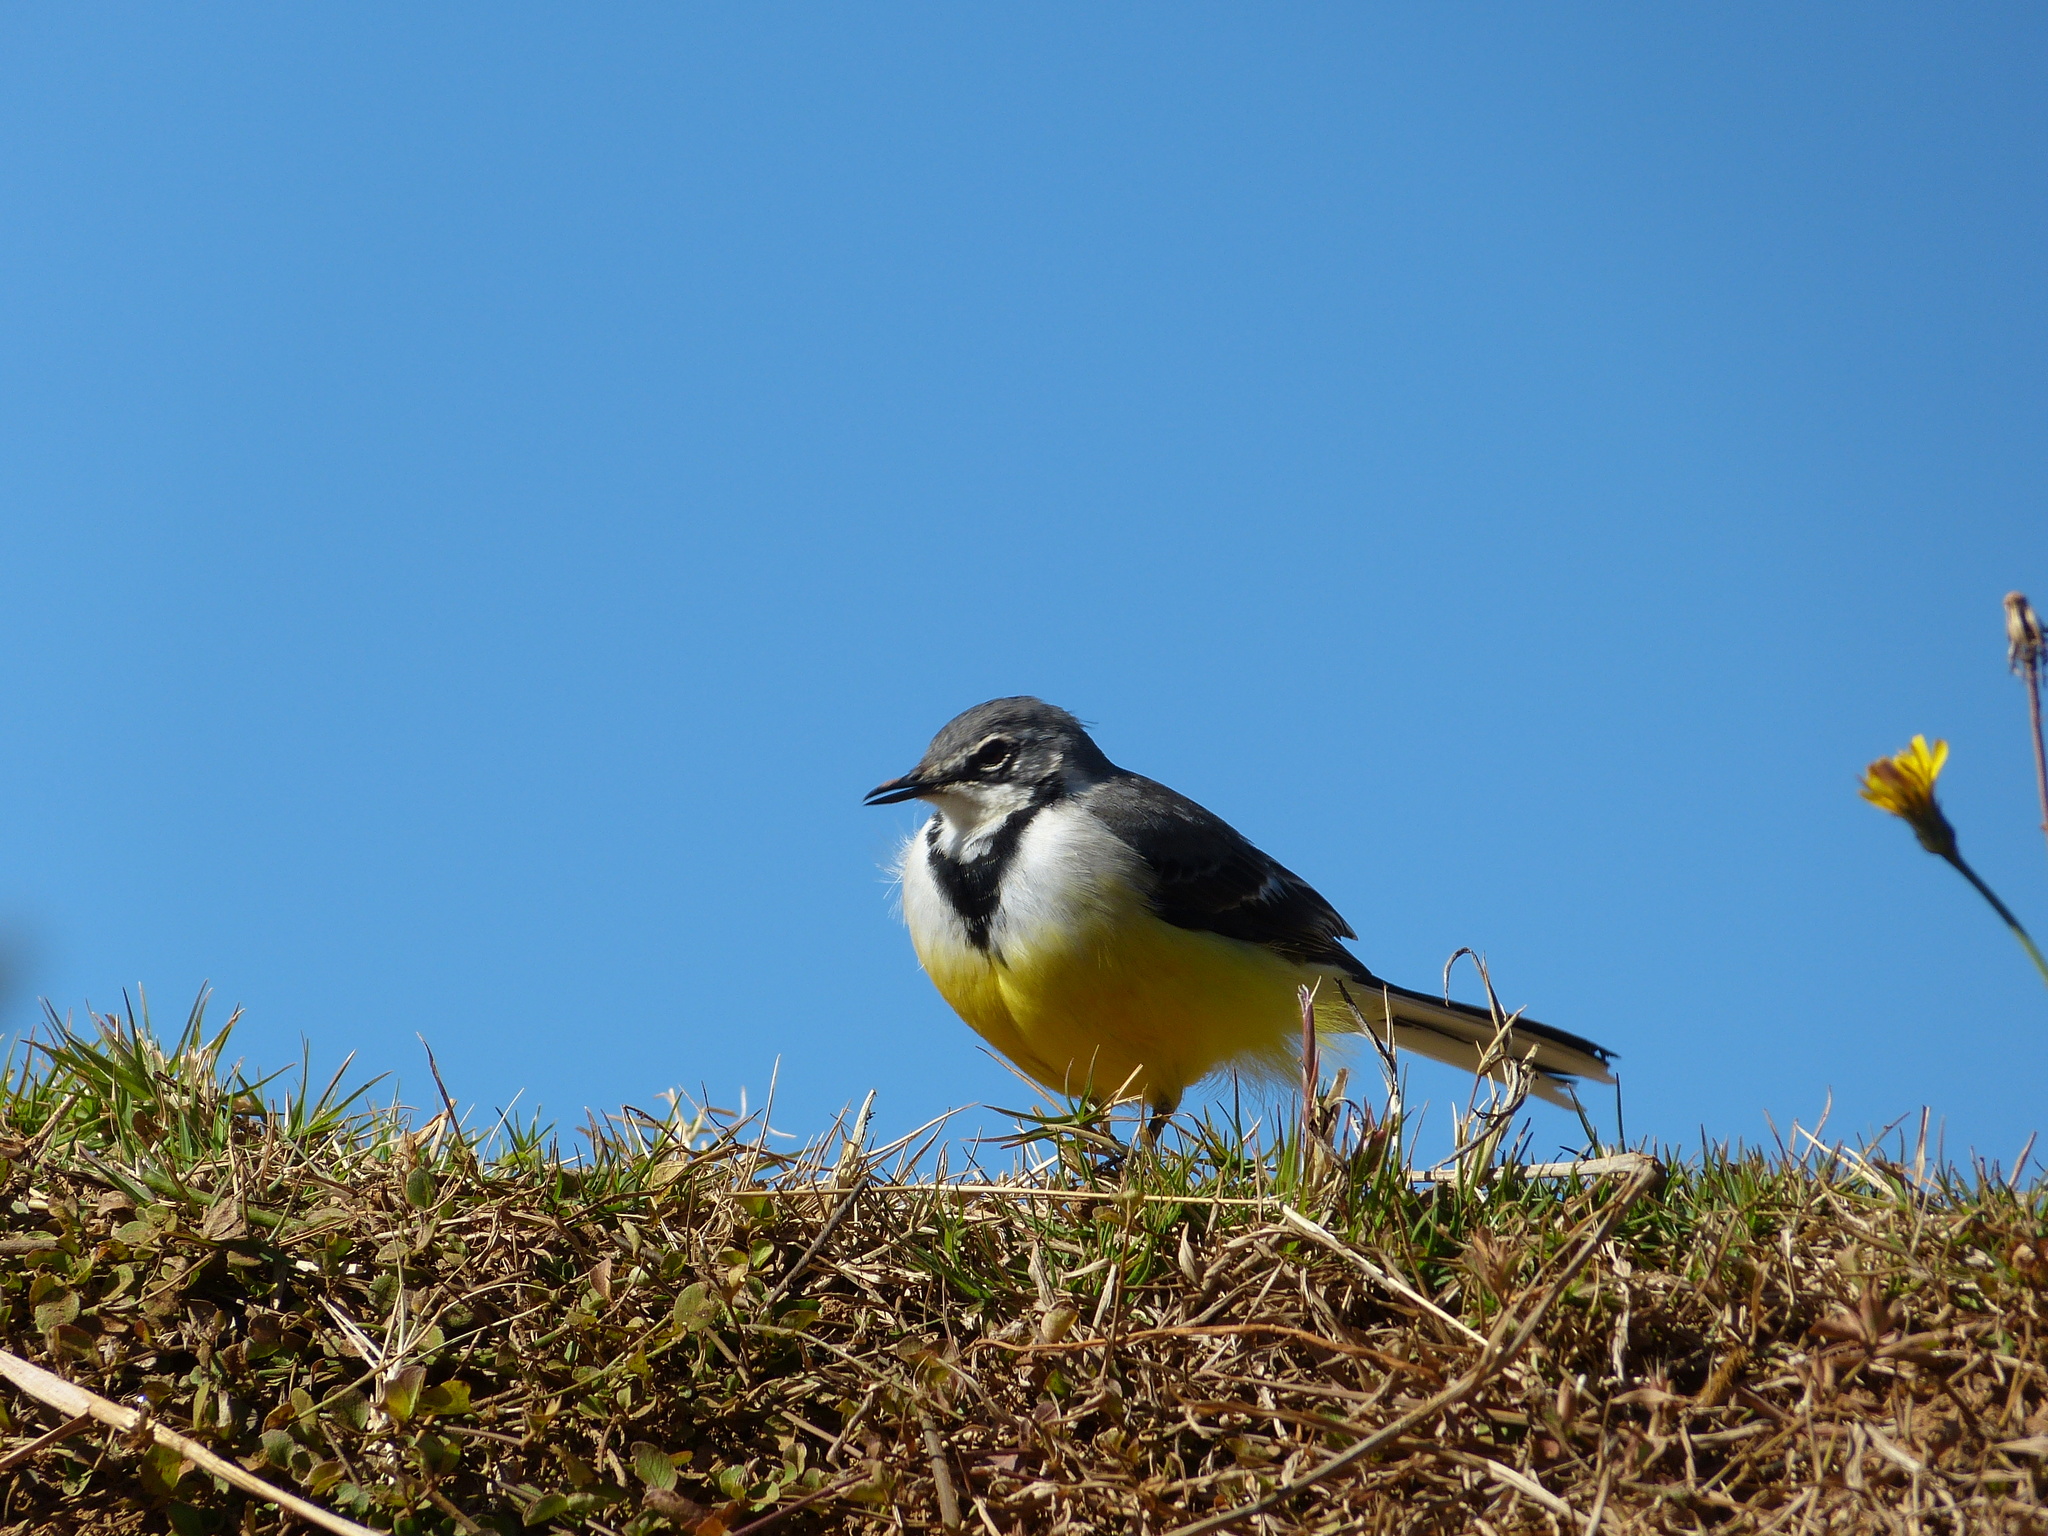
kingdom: Animalia
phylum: Chordata
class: Aves
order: Passeriformes
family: Motacillidae
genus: Motacilla
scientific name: Motacilla flaviventris
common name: Madagascar wagtail
